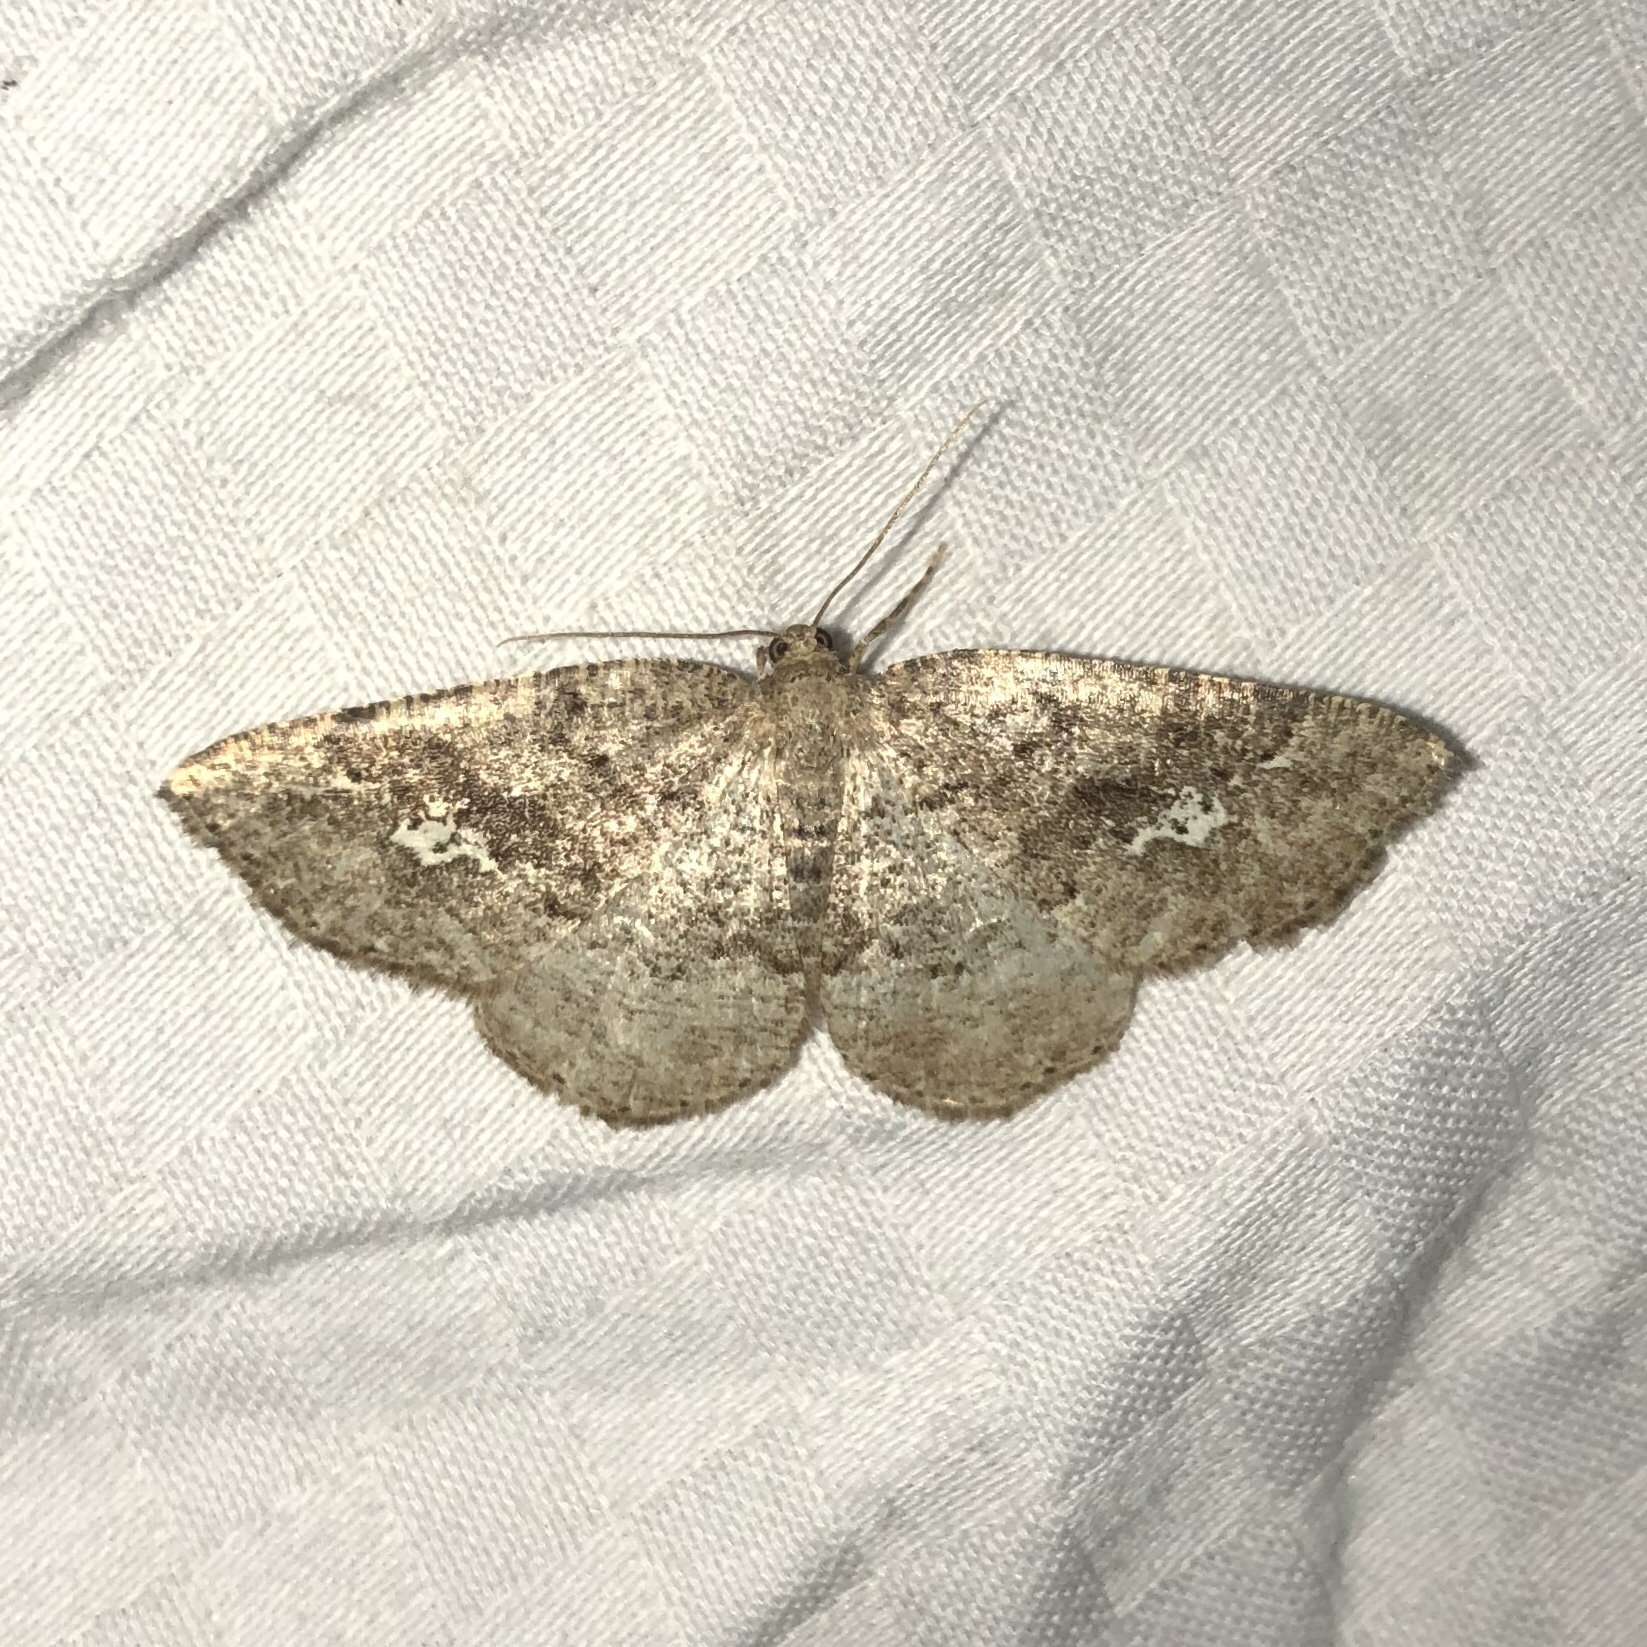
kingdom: Animalia
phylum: Arthropoda
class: Insecta
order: Lepidoptera
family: Geometridae
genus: Homochlodes
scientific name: Homochlodes fritillaria
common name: Pale homochlodes
